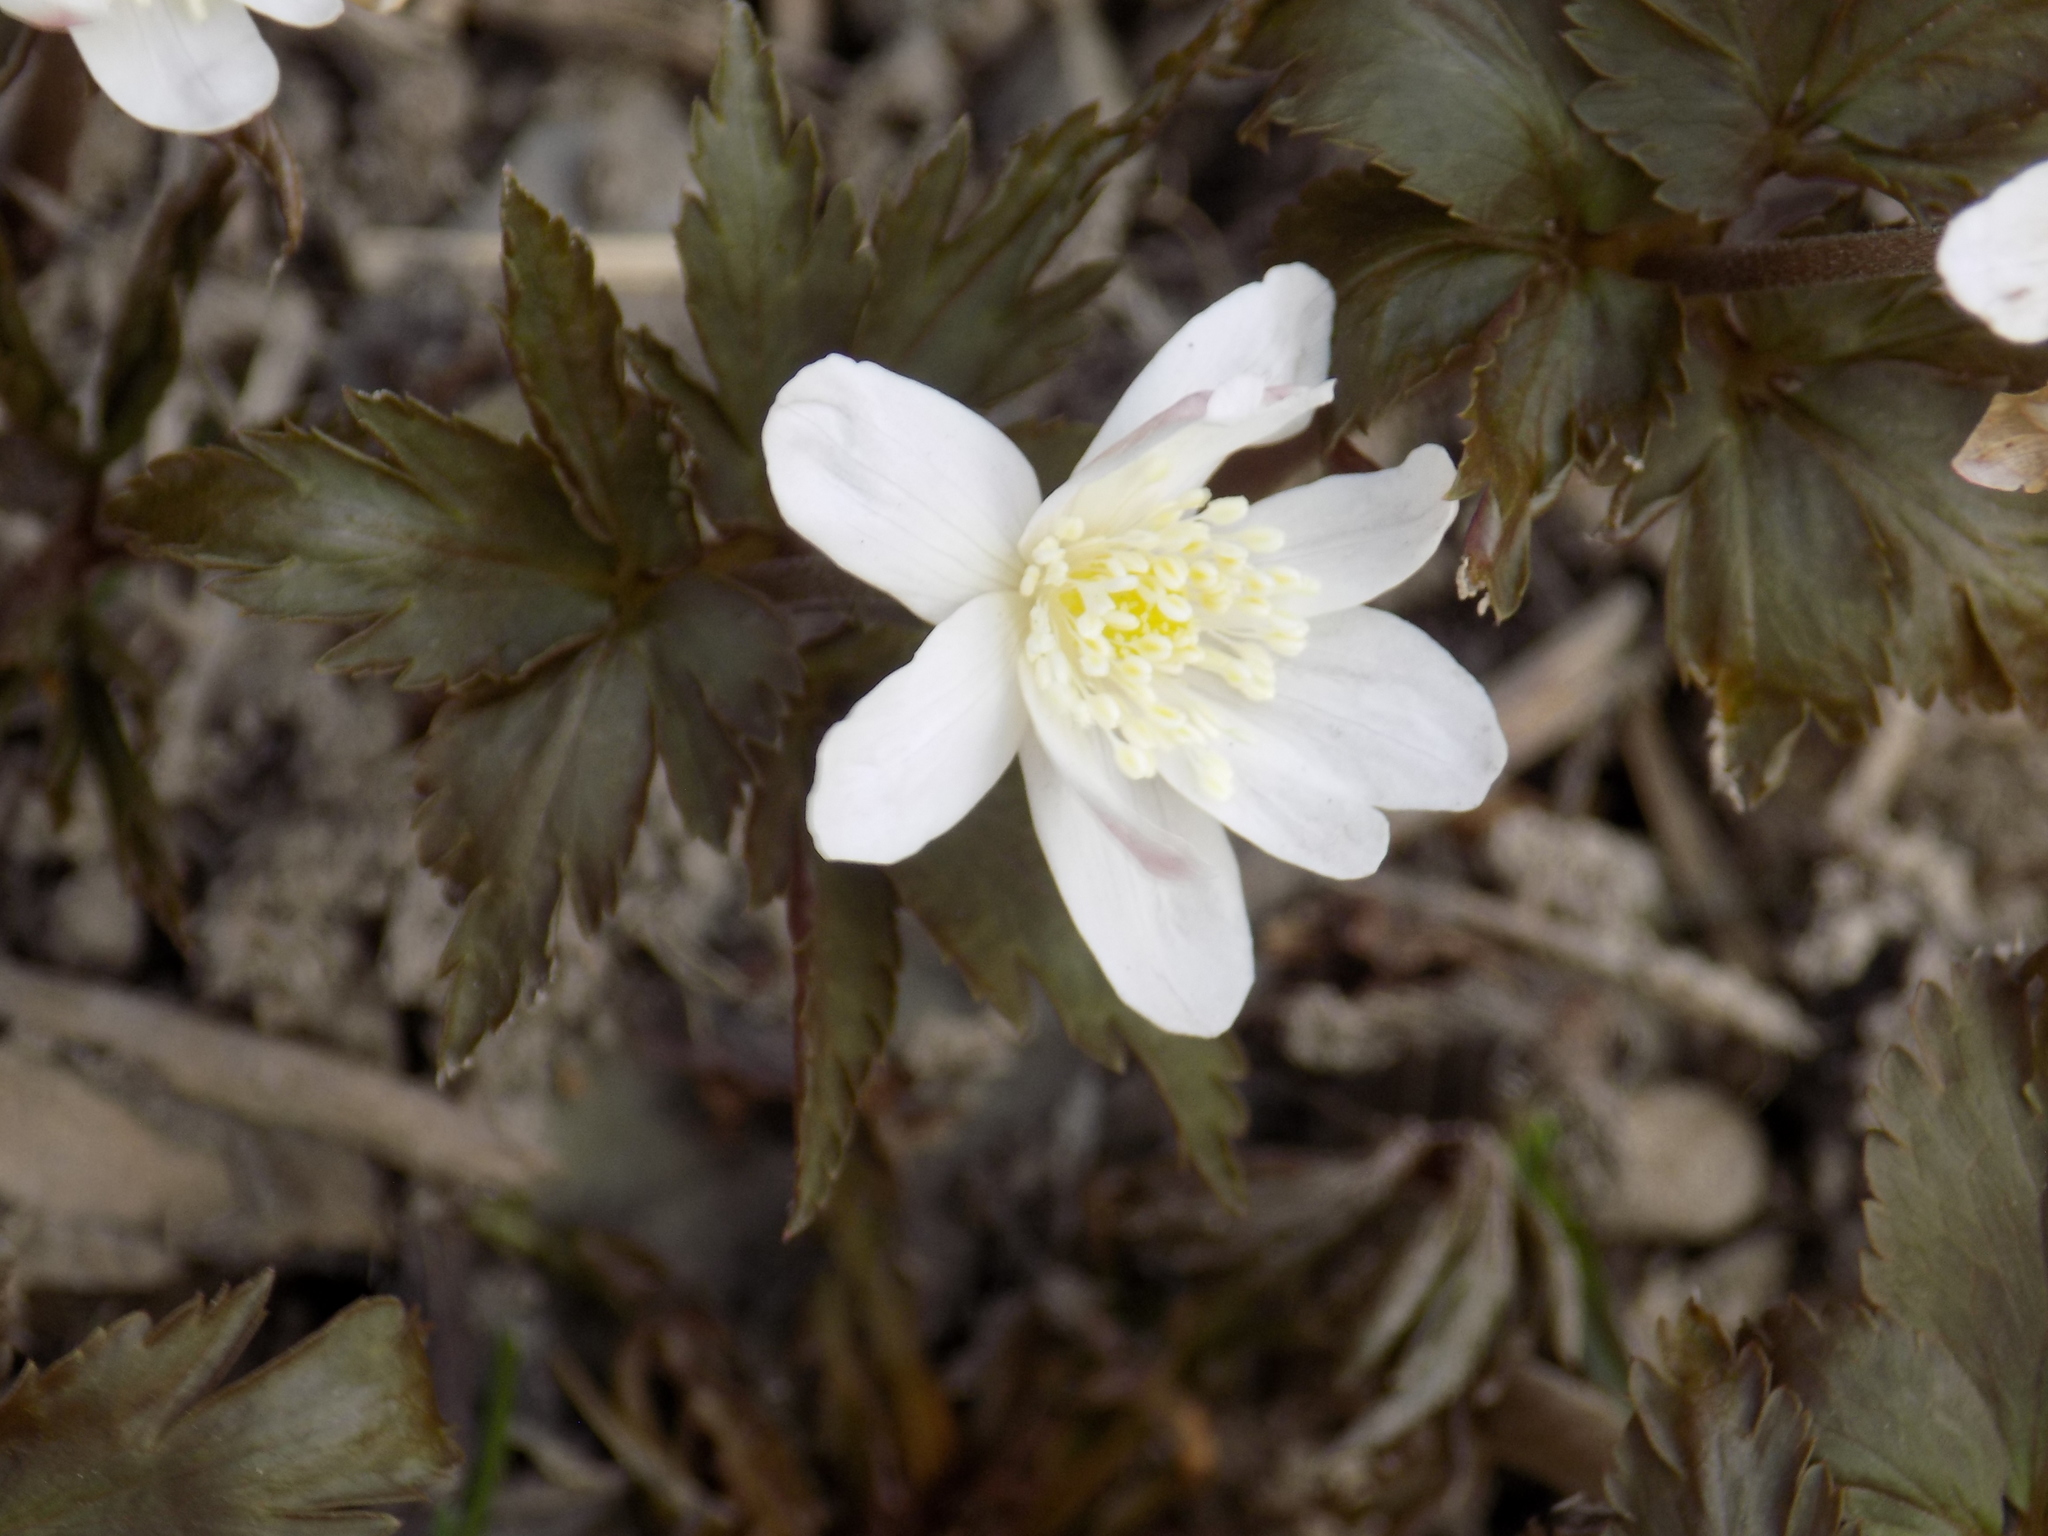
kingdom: Plantae
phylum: Tracheophyta
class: Magnoliopsida
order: Ranunculales
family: Ranunculaceae
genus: Anemone
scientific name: Anemone altaica
